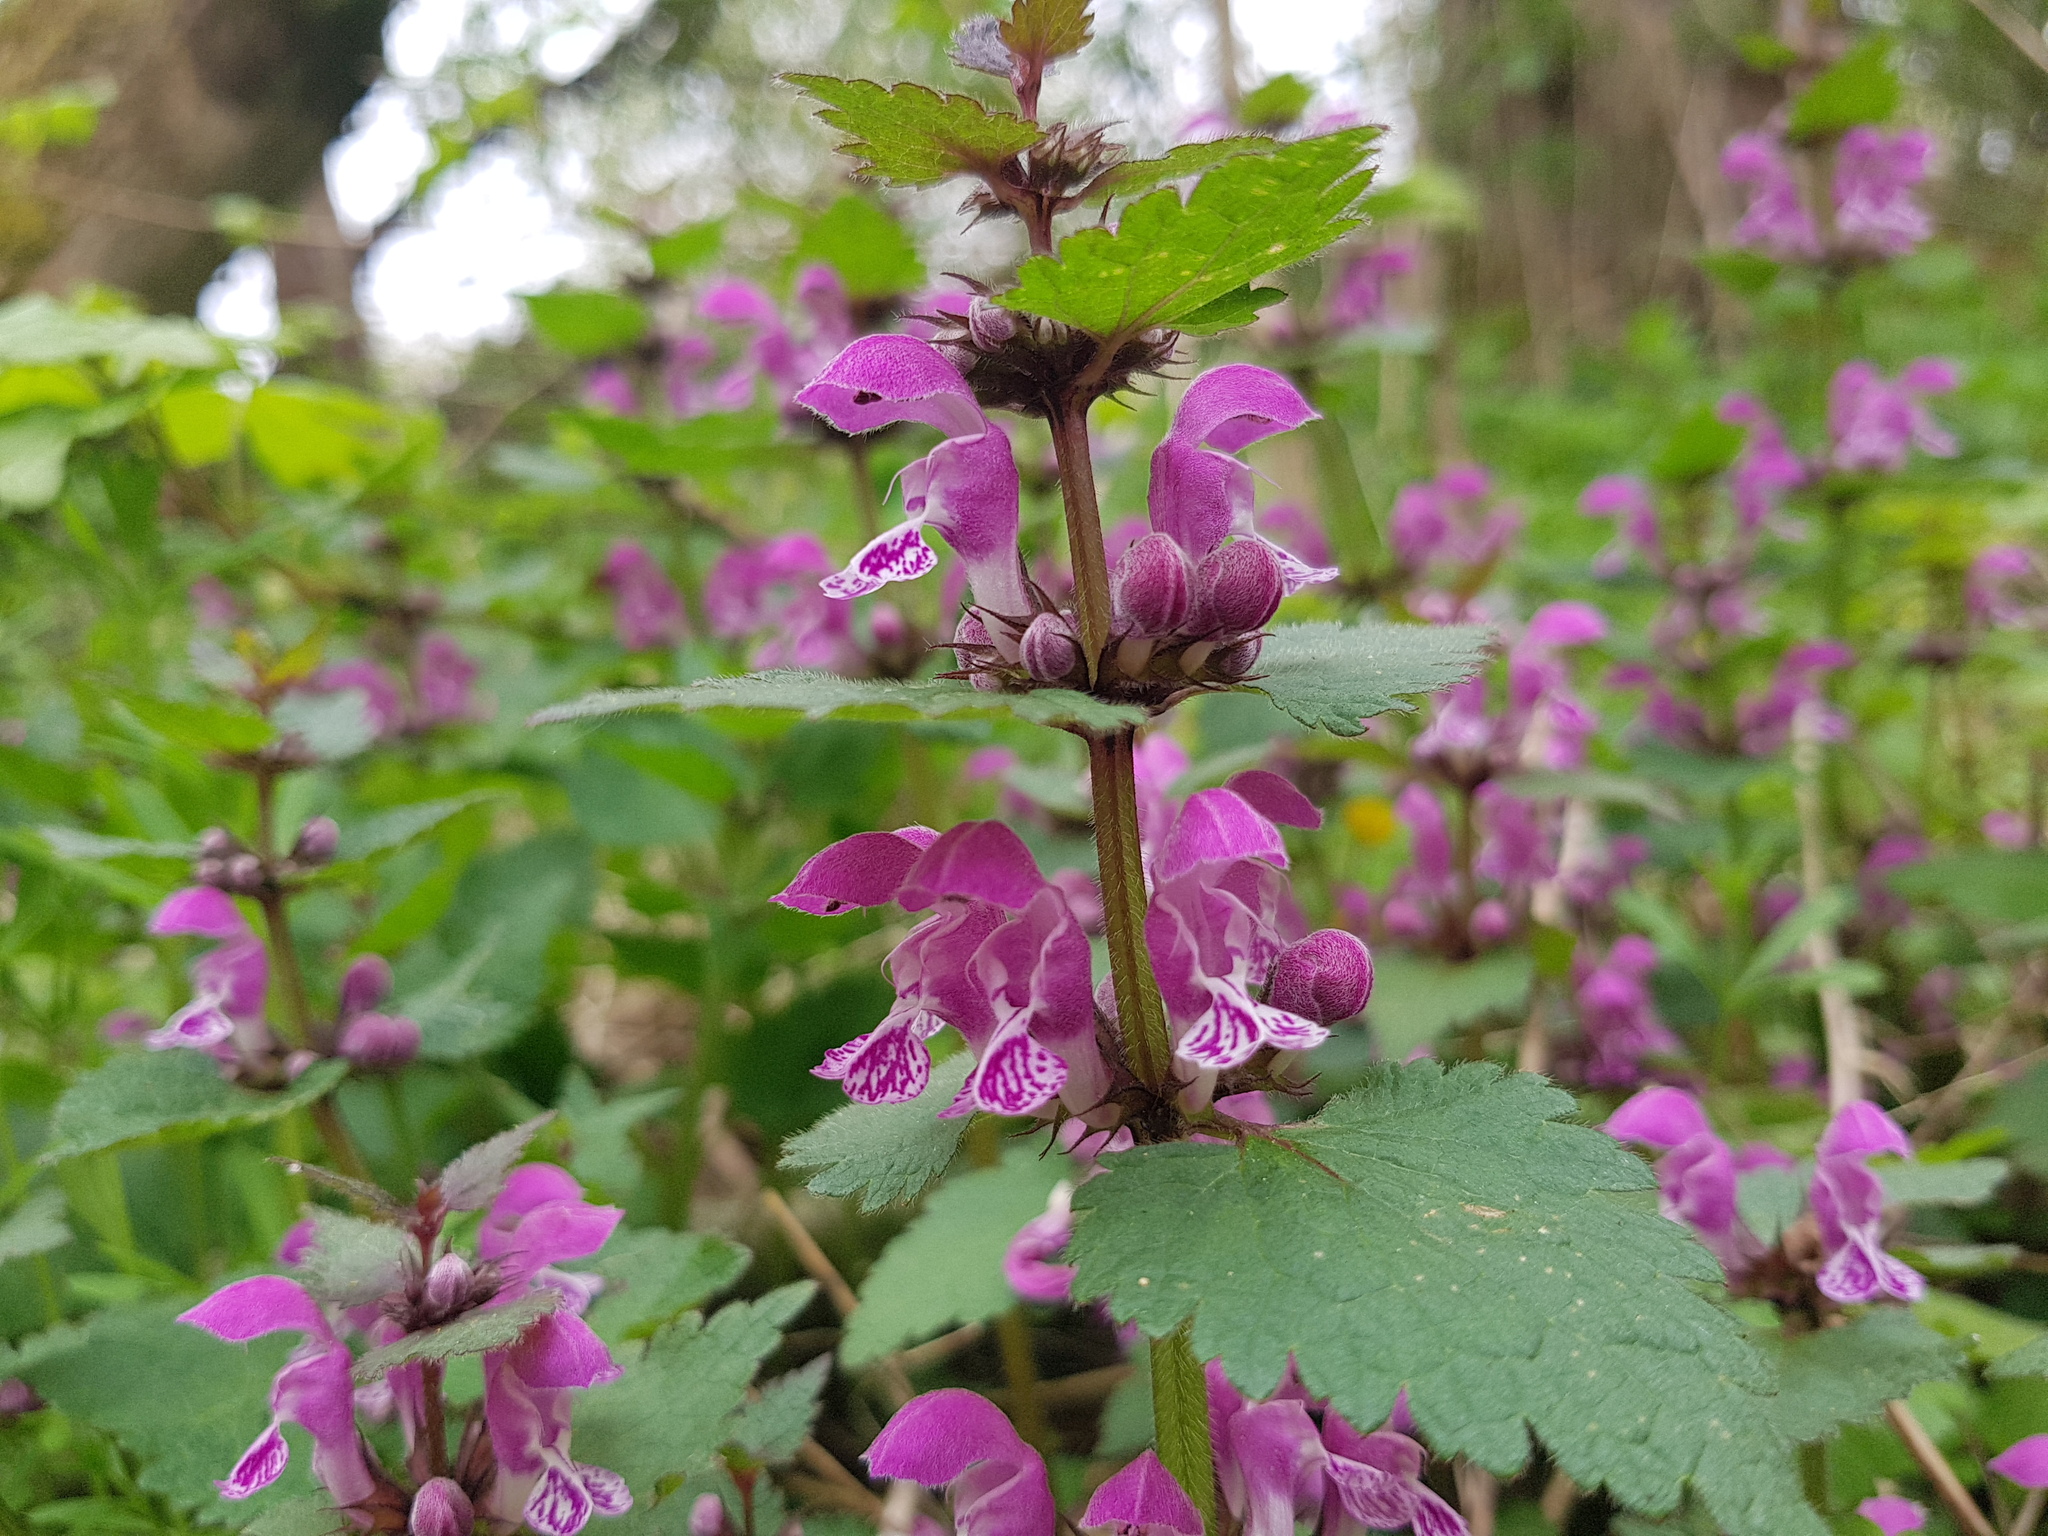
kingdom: Plantae
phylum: Tracheophyta
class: Magnoliopsida
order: Lamiales
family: Lamiaceae
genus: Lamium
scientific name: Lamium maculatum
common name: Spotted dead-nettle
